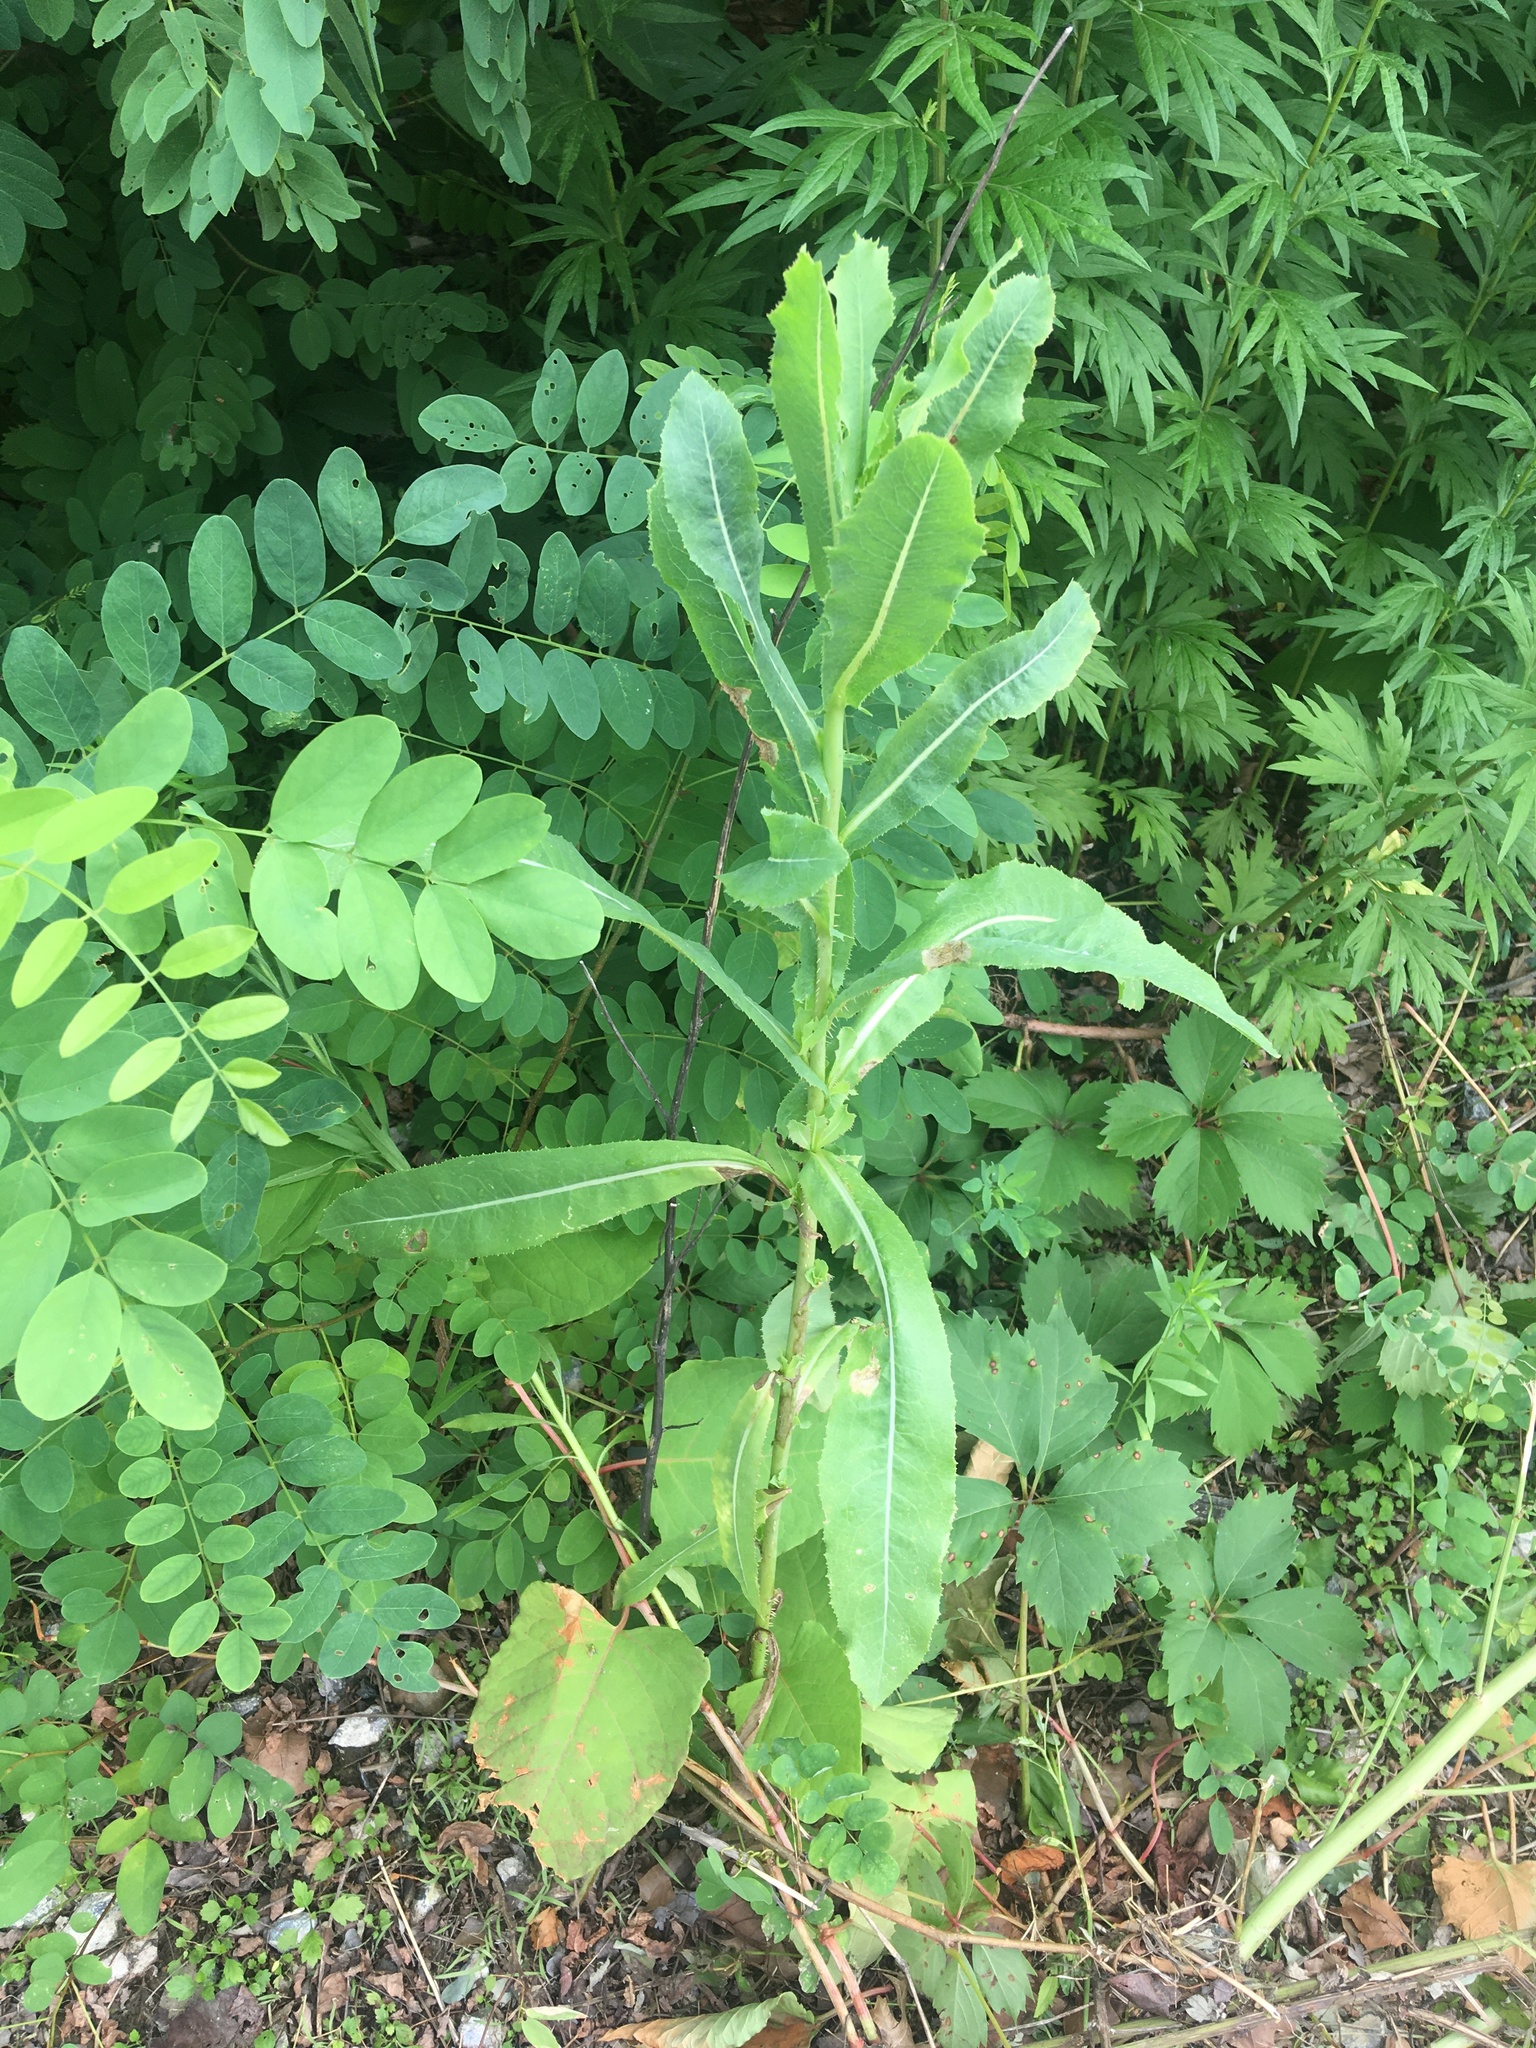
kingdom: Plantae
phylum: Tracheophyta
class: Magnoliopsida
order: Asterales
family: Asteraceae
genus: Lactuca
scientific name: Lactuca serriola
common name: Prickly lettuce
